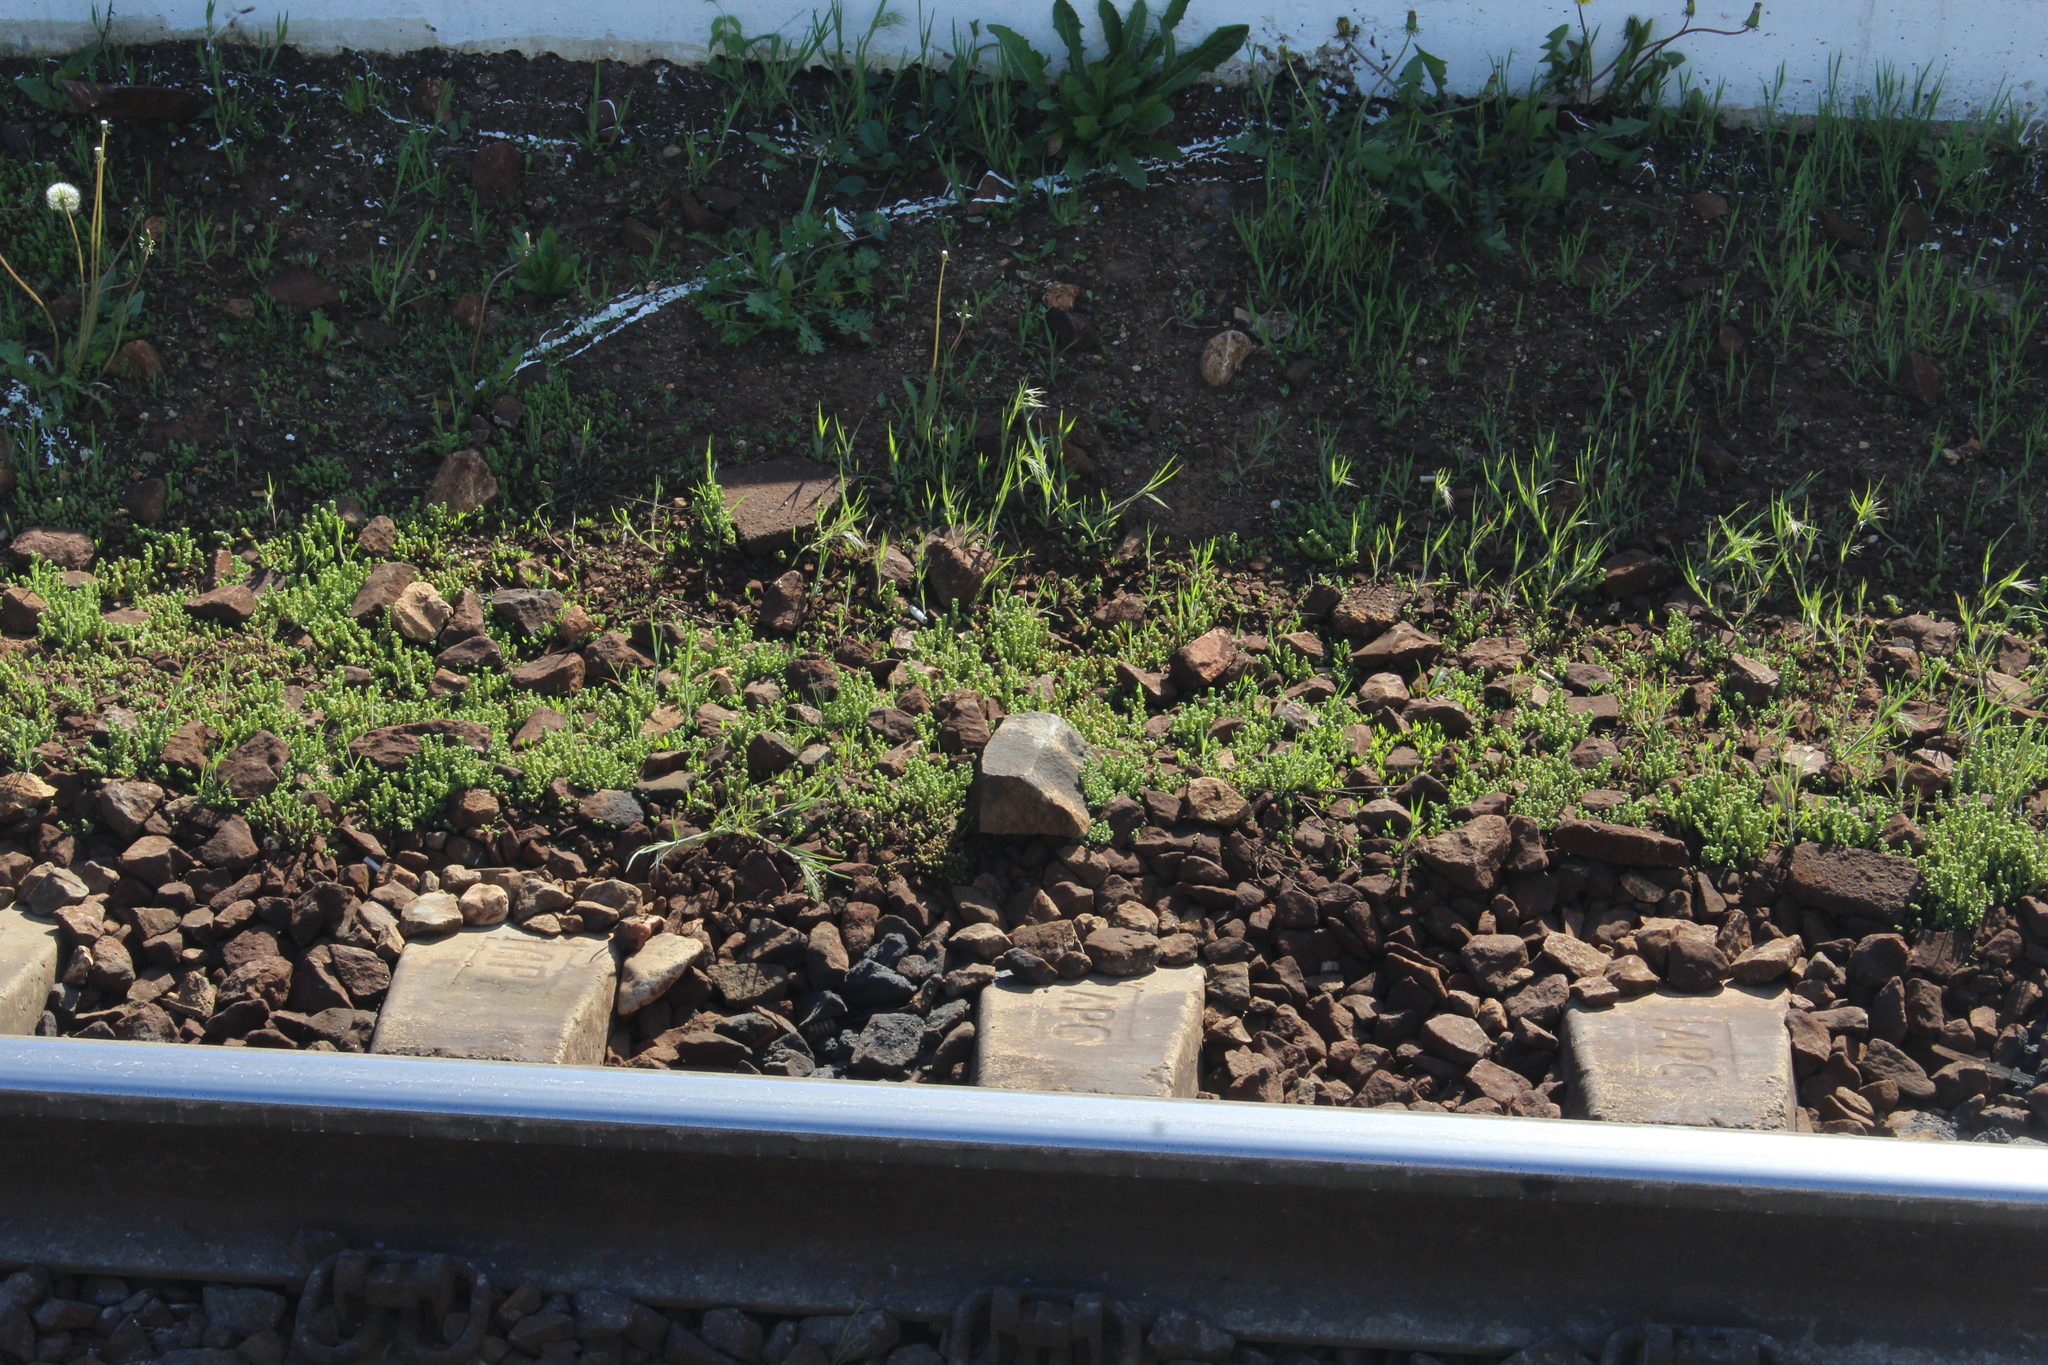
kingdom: Plantae
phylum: Tracheophyta
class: Magnoliopsida
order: Saxifragales
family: Crassulaceae
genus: Sedum
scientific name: Sedum acre
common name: Biting stonecrop
